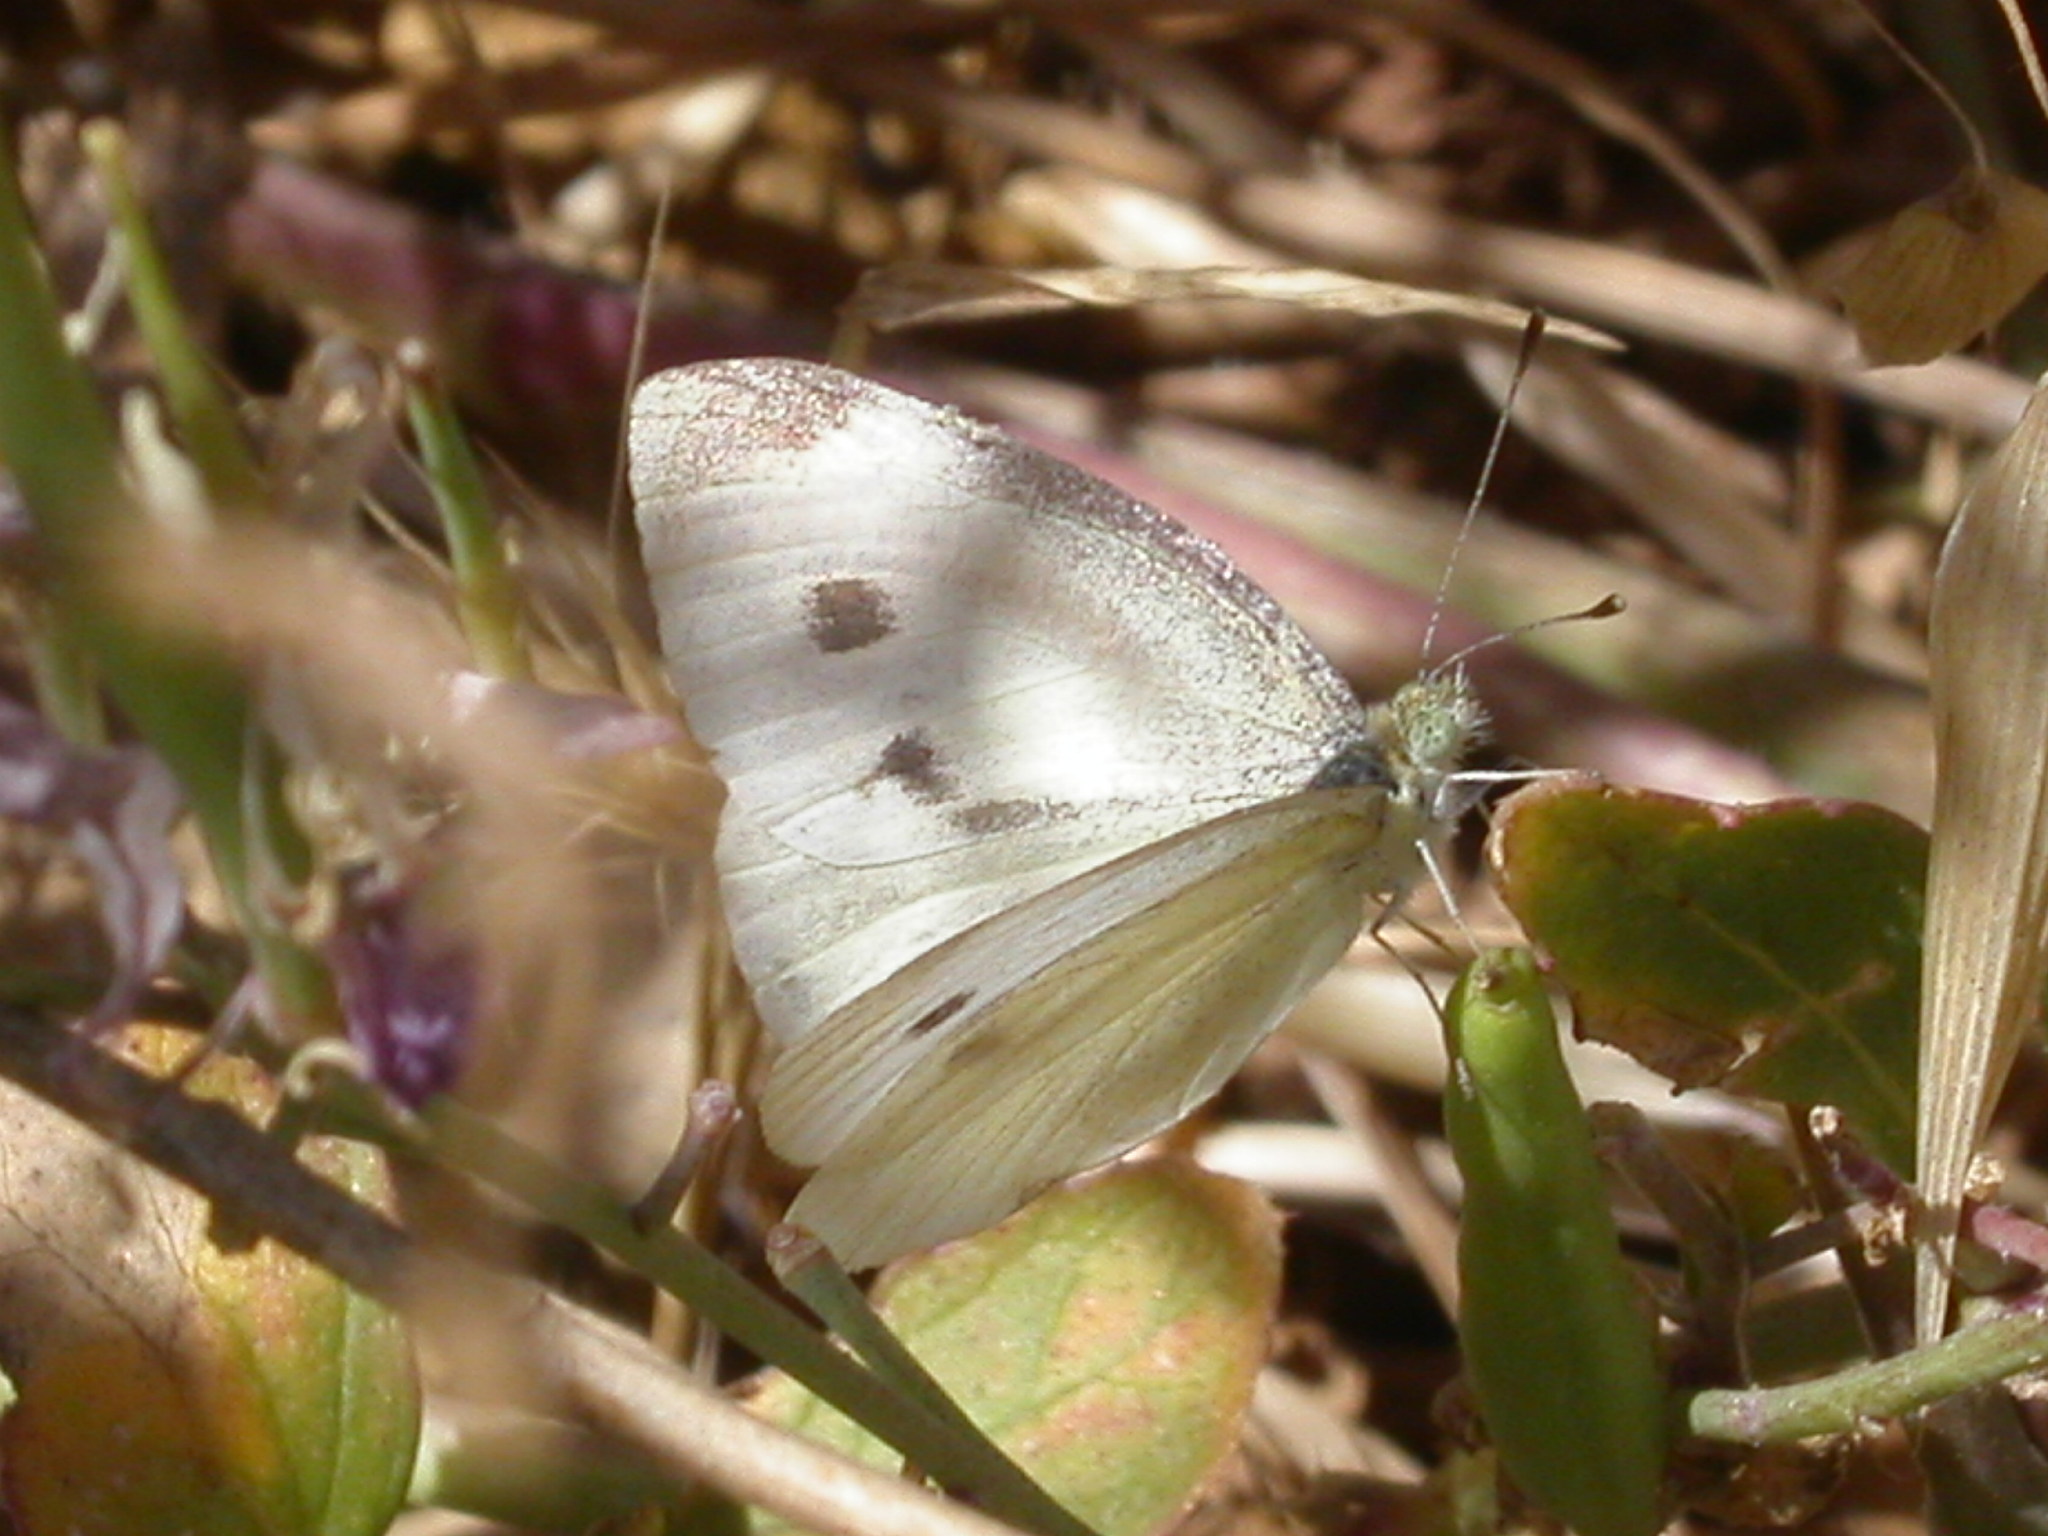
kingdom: Animalia
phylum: Arthropoda
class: Insecta
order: Lepidoptera
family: Pieridae
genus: Pieris
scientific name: Pieris rapae
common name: Small white
